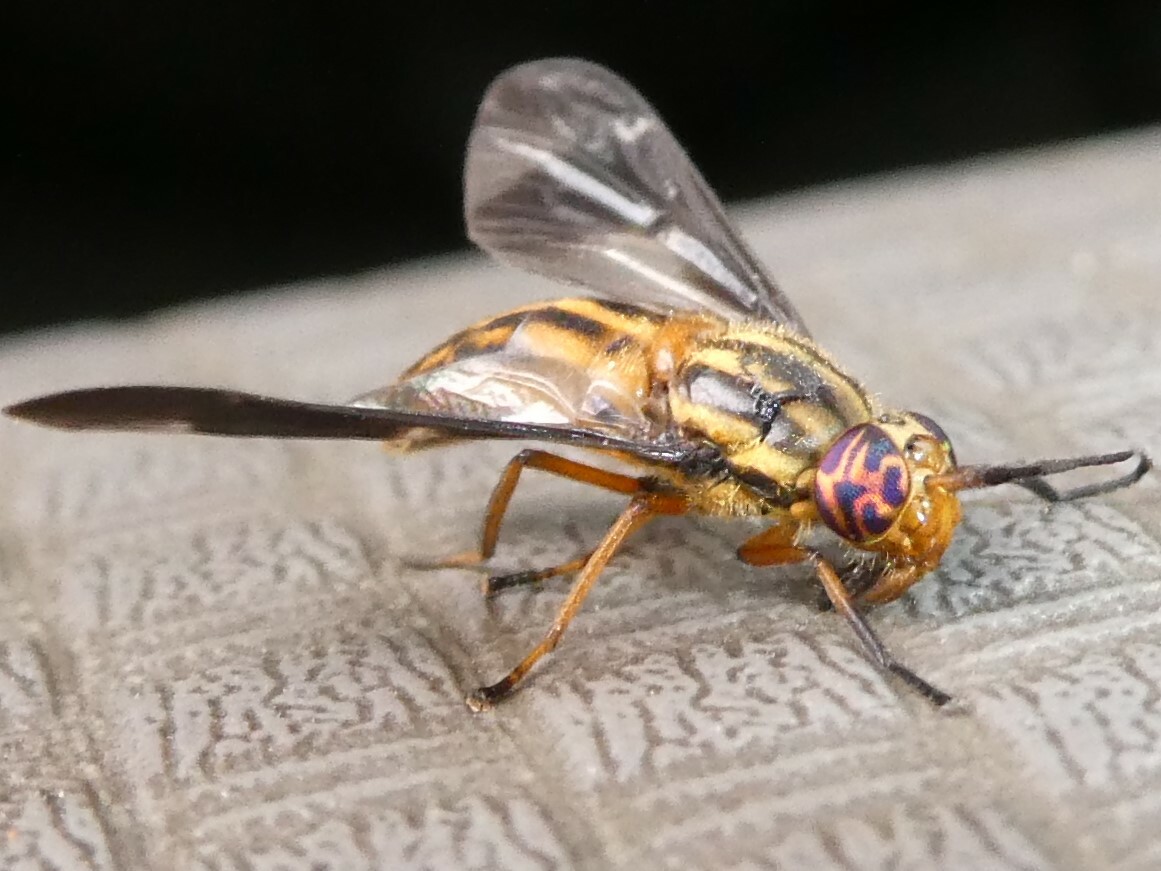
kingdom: Animalia
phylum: Arthropoda
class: Insecta
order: Diptera
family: Tabanidae
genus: Chrysops
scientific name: Chrysops vittatus
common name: Striped deer fly
